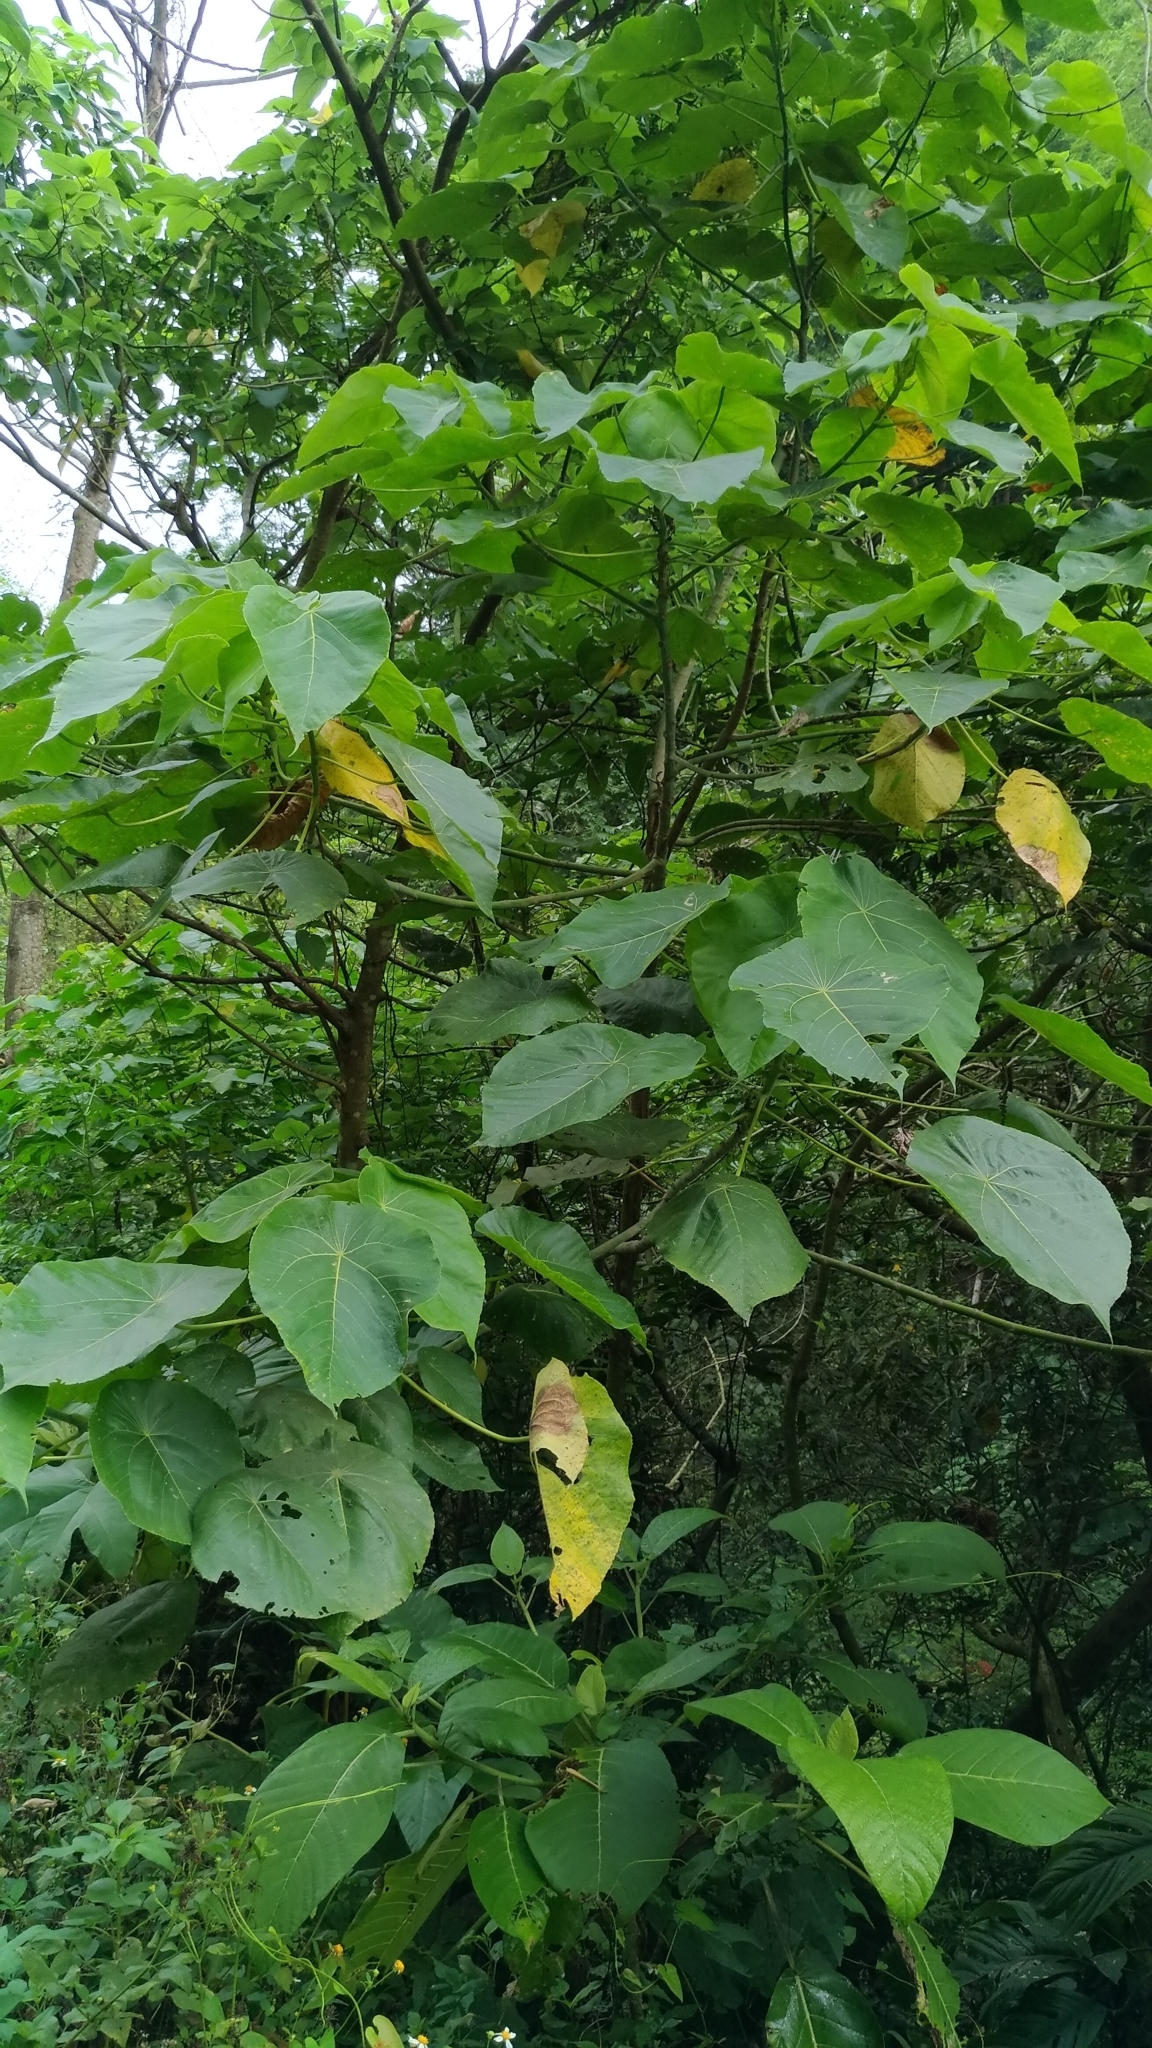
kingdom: Plantae
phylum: Tracheophyta
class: Magnoliopsida
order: Malpighiales
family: Euphorbiaceae
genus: Macaranga
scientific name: Macaranga tanarius
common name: Parasol leaf tree
